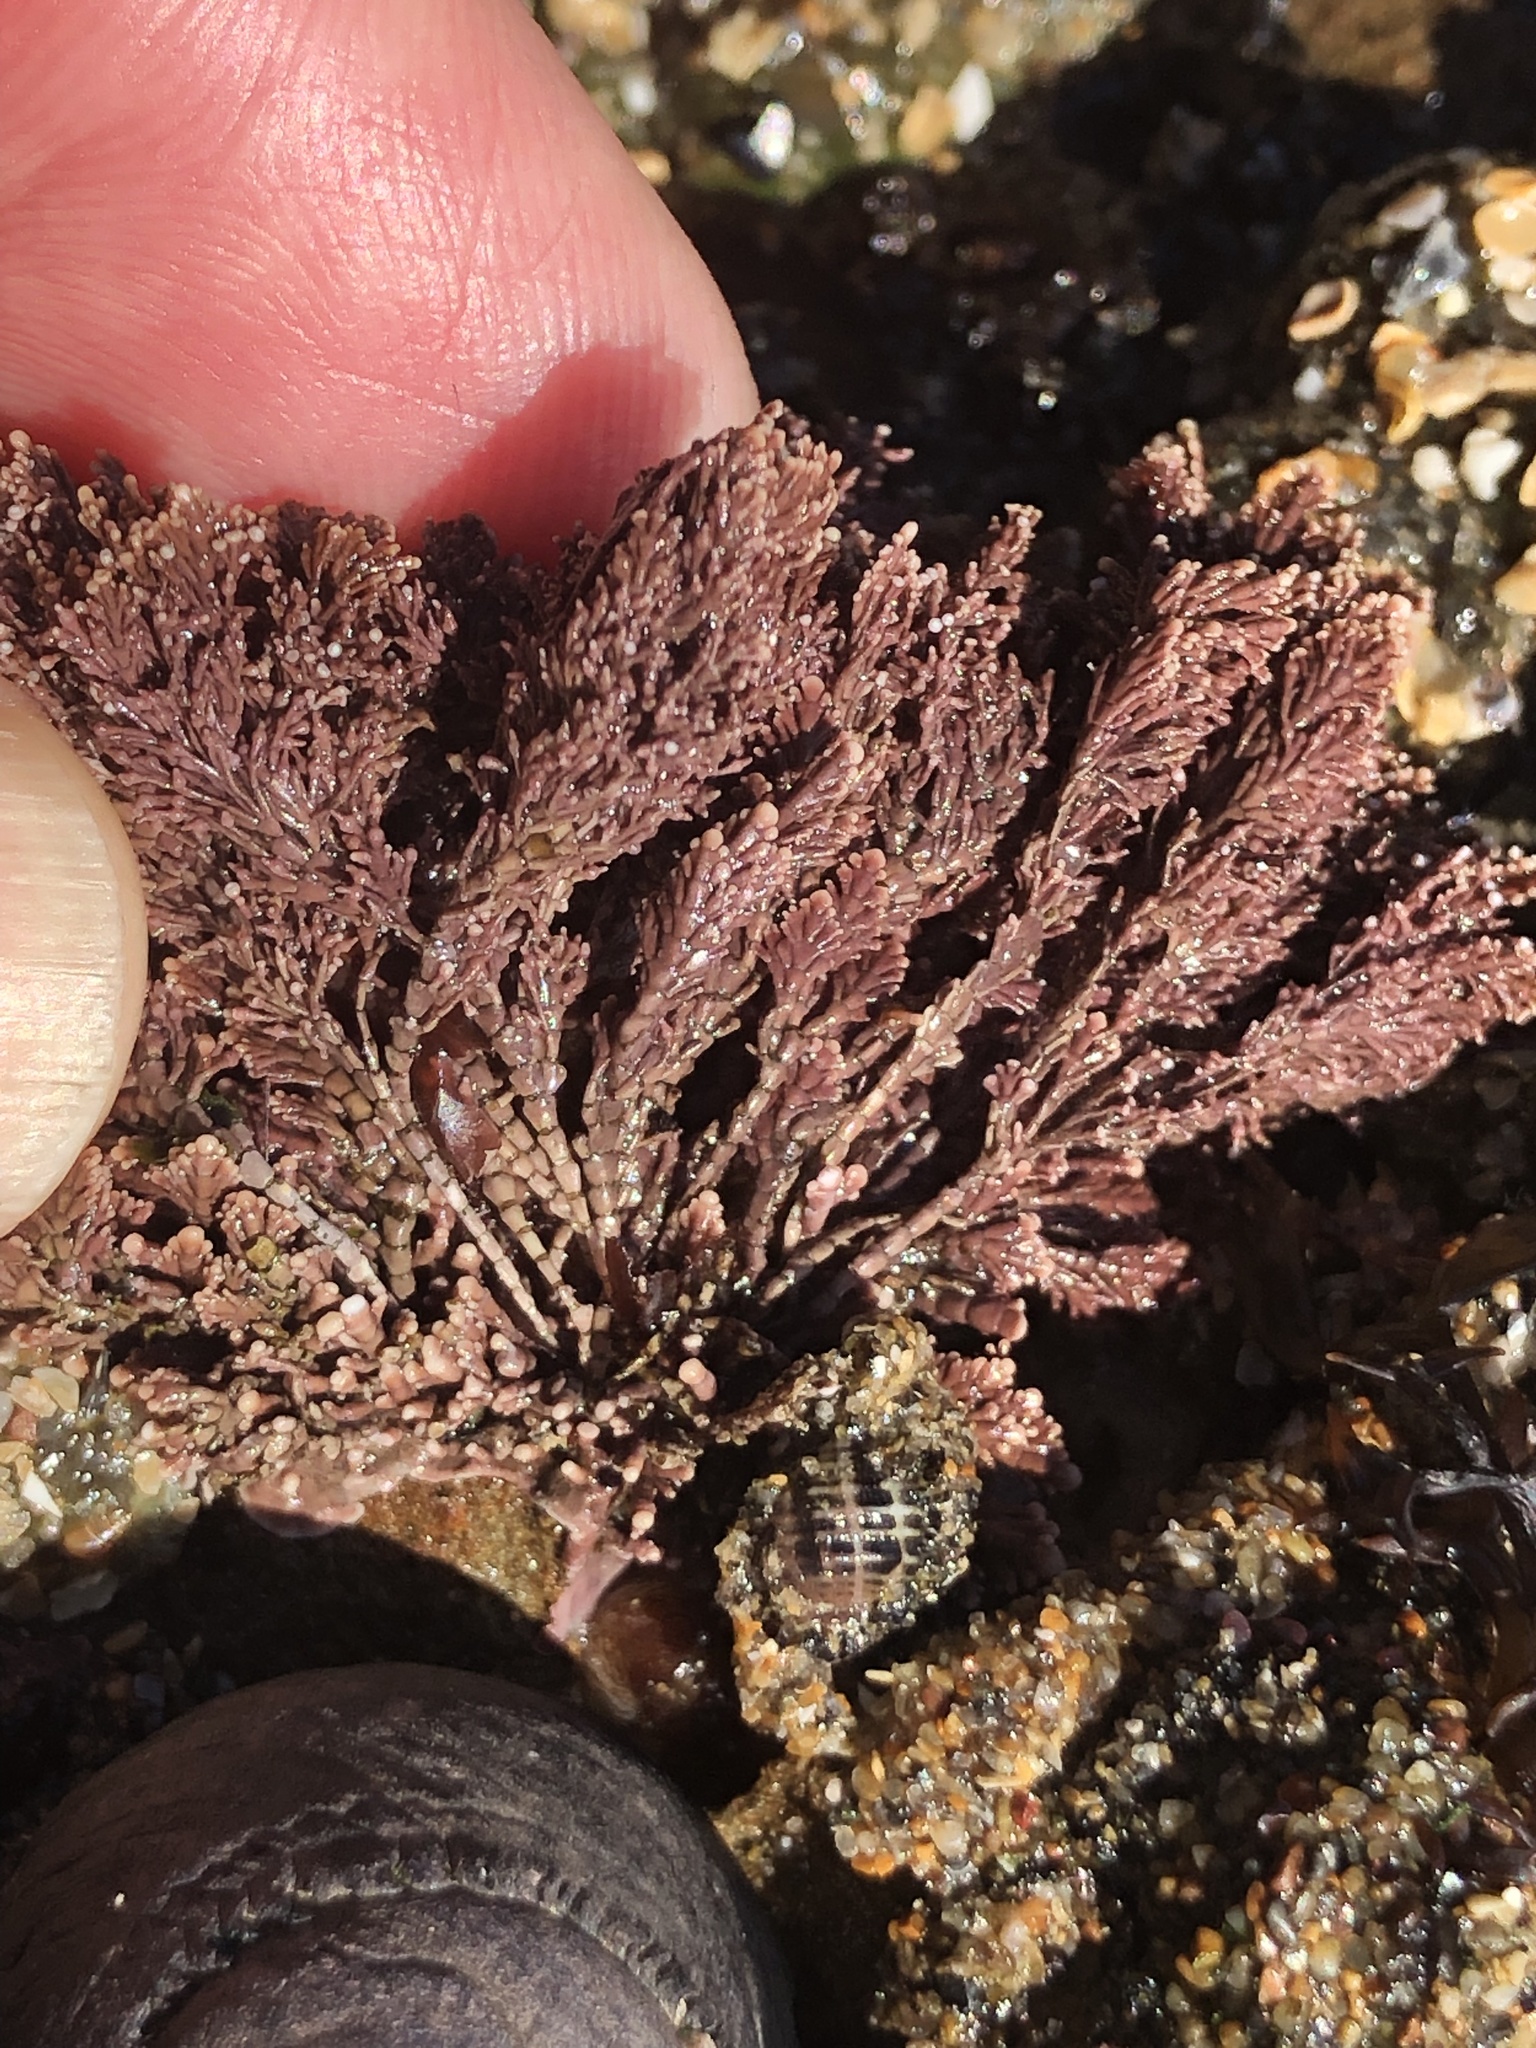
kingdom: Plantae
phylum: Rhodophyta
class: Florideophyceae
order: Corallinales
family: Corallinaceae
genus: Corallina
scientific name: Corallina vancouveriensis
